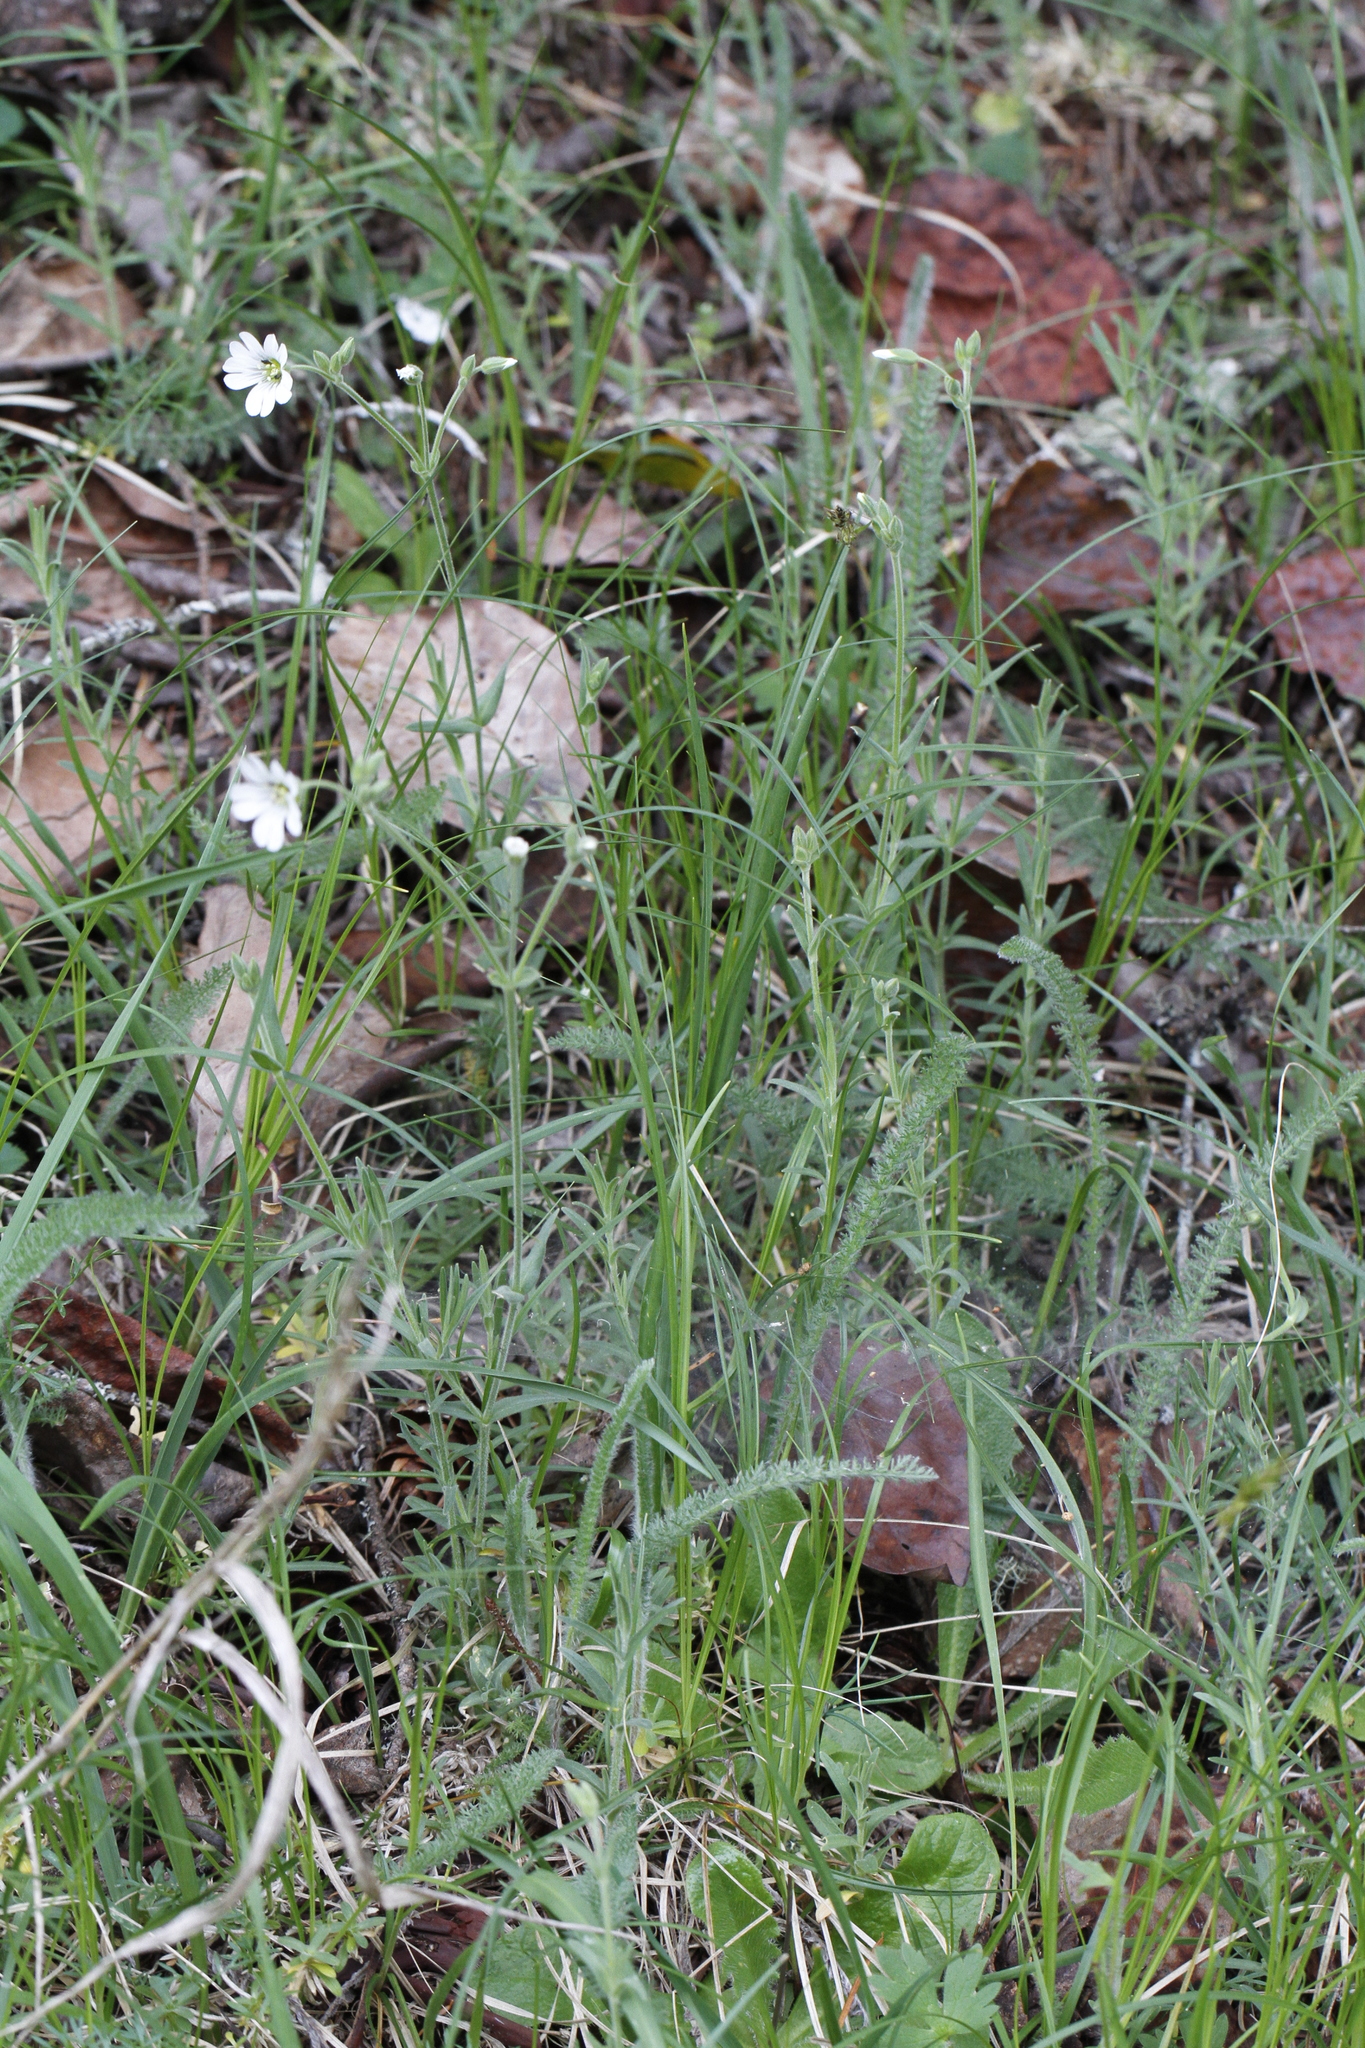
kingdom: Plantae
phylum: Tracheophyta
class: Magnoliopsida
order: Caryophyllales
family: Caryophyllaceae
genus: Cerastium
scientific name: Cerastium arvense
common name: Field mouse-ear
